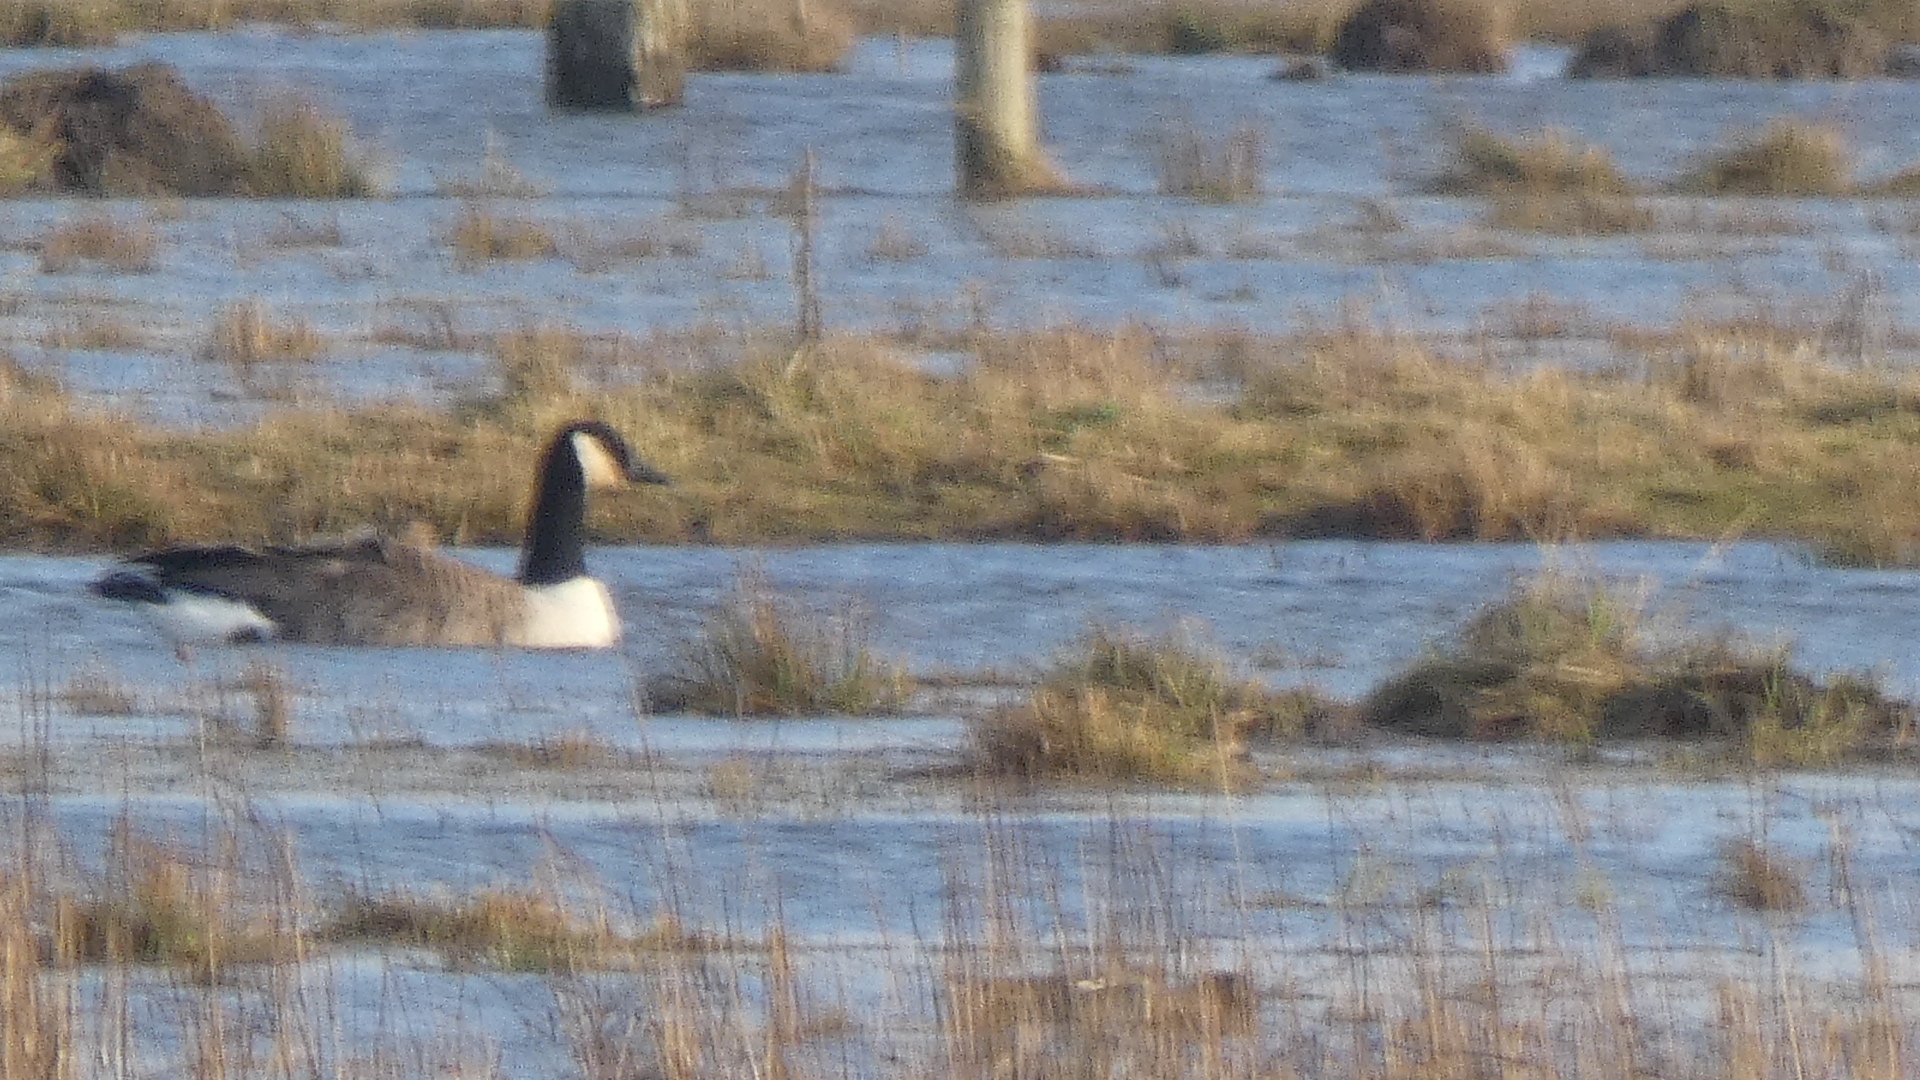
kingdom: Animalia
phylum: Chordata
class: Aves
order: Anseriformes
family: Anatidae
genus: Branta
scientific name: Branta canadensis
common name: Canada goose
